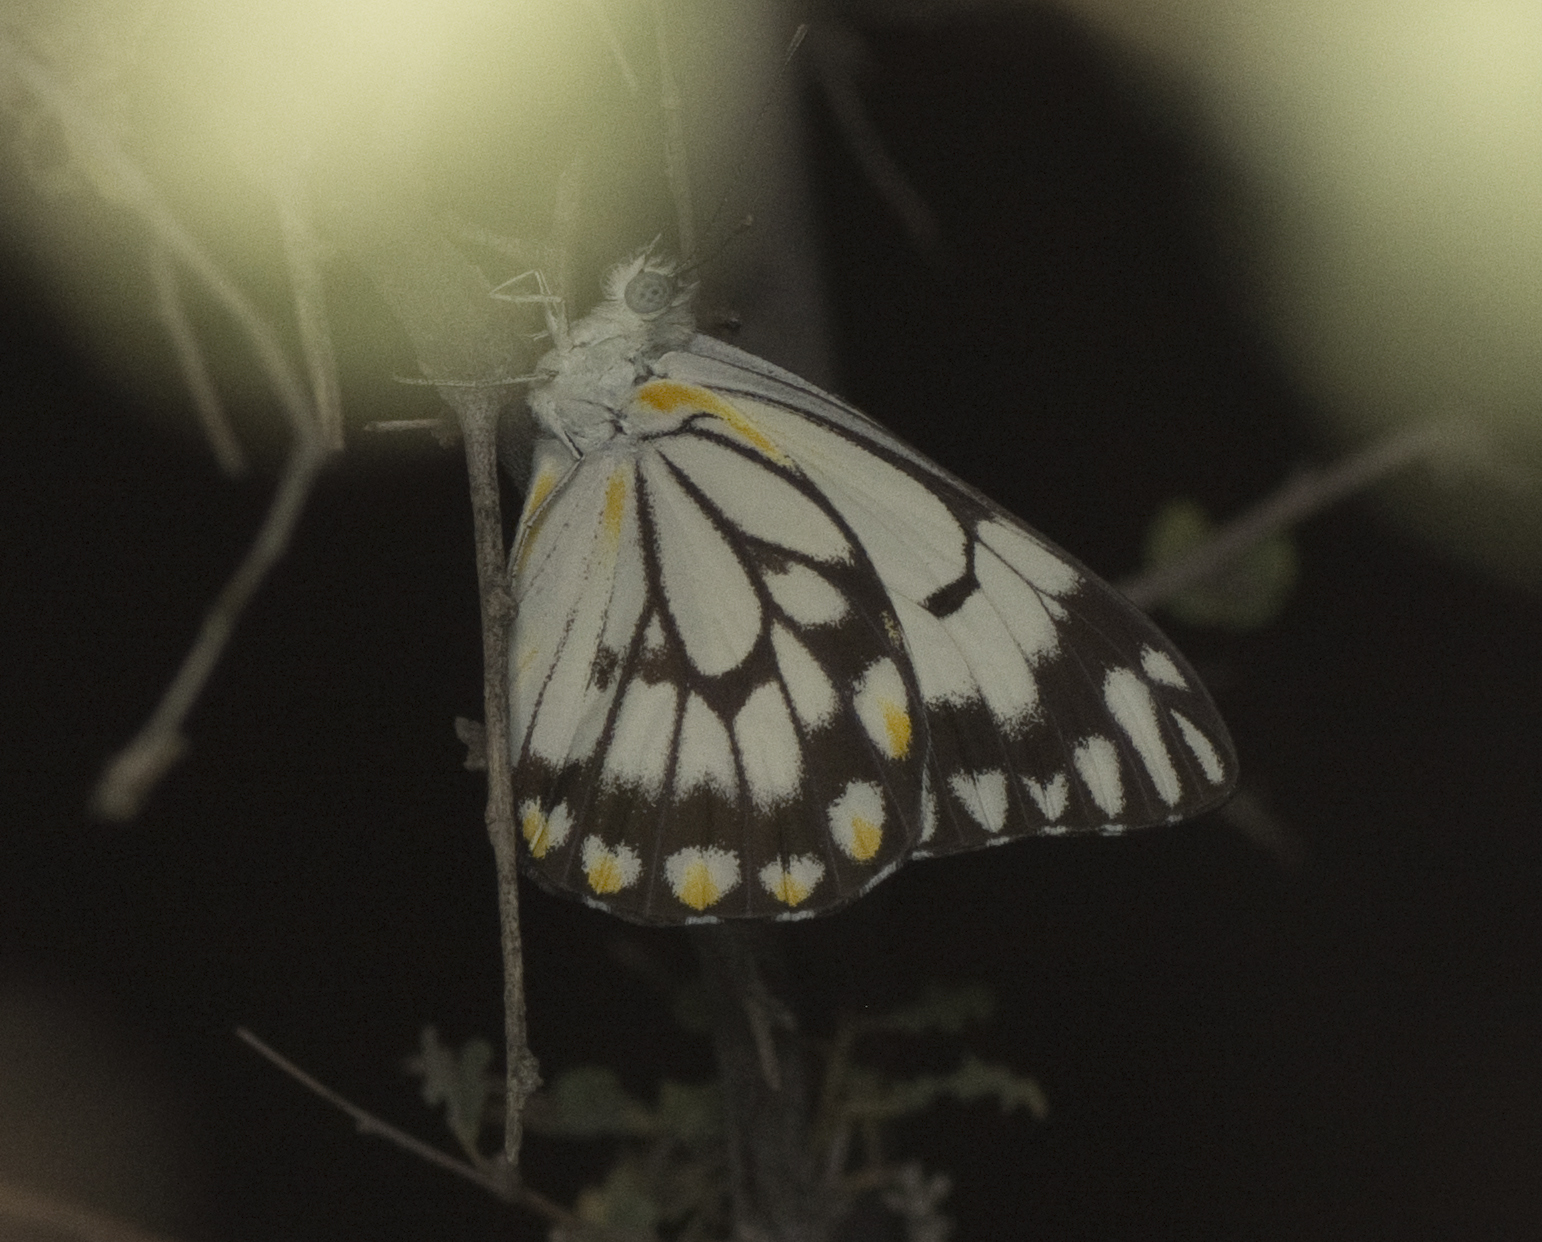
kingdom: Animalia
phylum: Arthropoda
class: Insecta
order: Lepidoptera
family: Pieridae
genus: Belenois
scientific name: Belenois java
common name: Caper white
